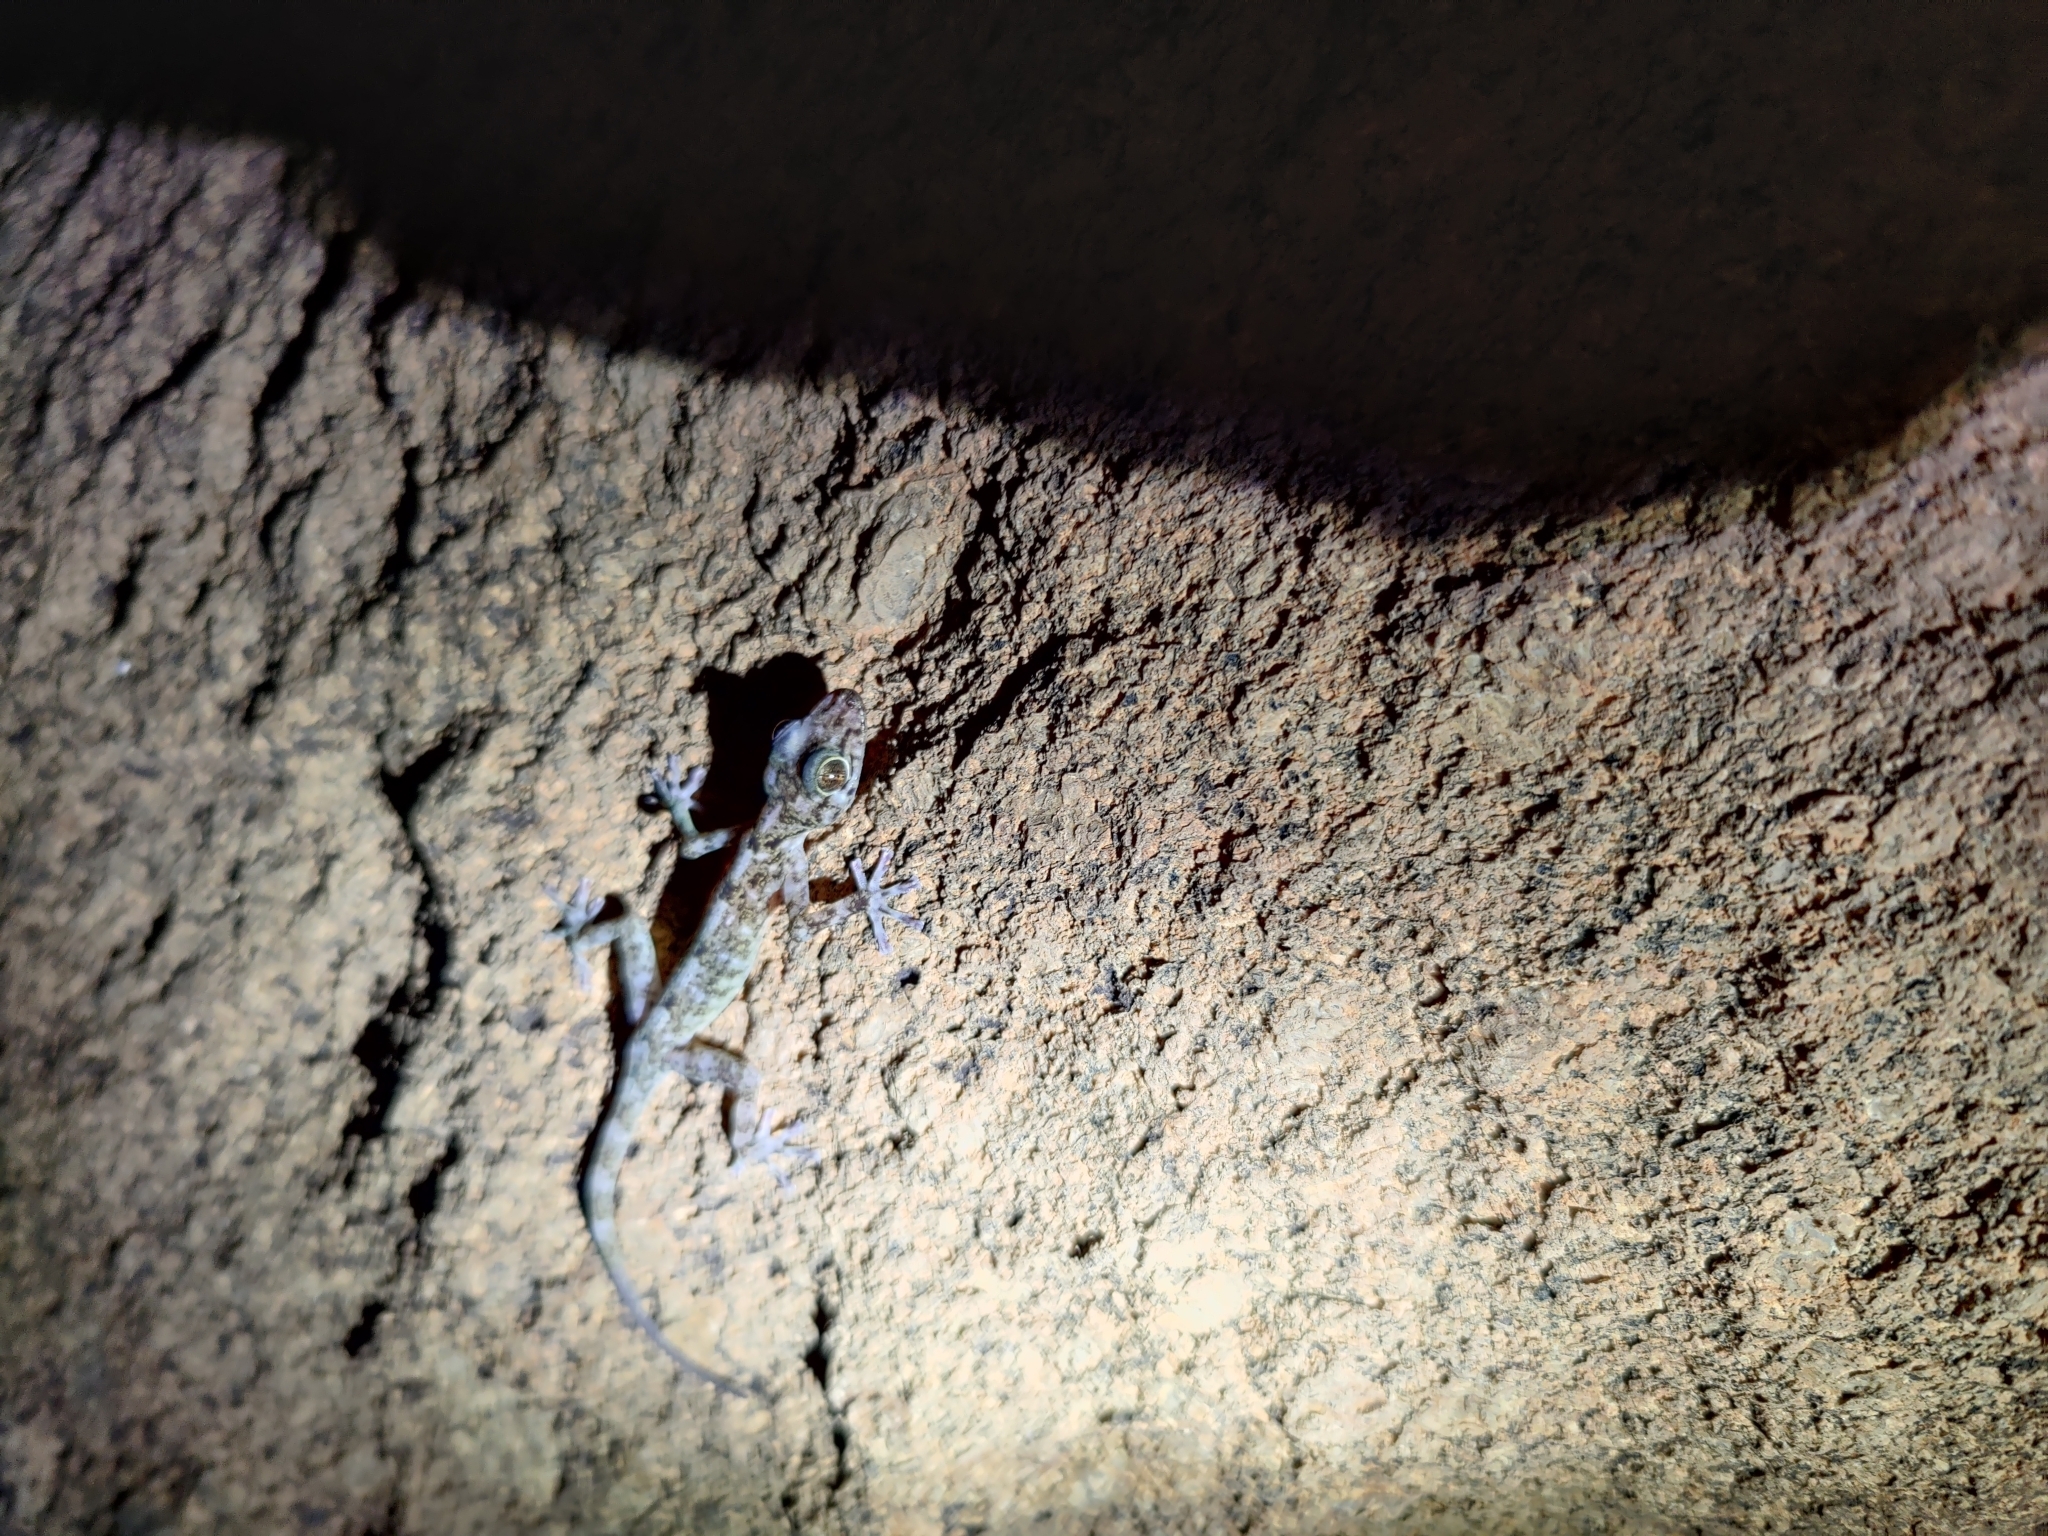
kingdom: Animalia
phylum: Chordata
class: Squamata
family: Gekkonidae
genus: Calodactylodes
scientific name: Calodactylodes aureus
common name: Indian golden gecko
